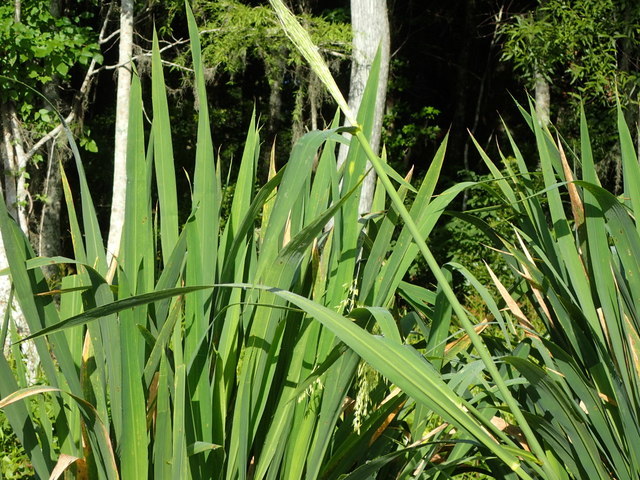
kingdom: Plantae
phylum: Tracheophyta
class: Liliopsida
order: Poales
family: Poaceae
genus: Zizania
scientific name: Zizania aquatica
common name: Annual wildrice
